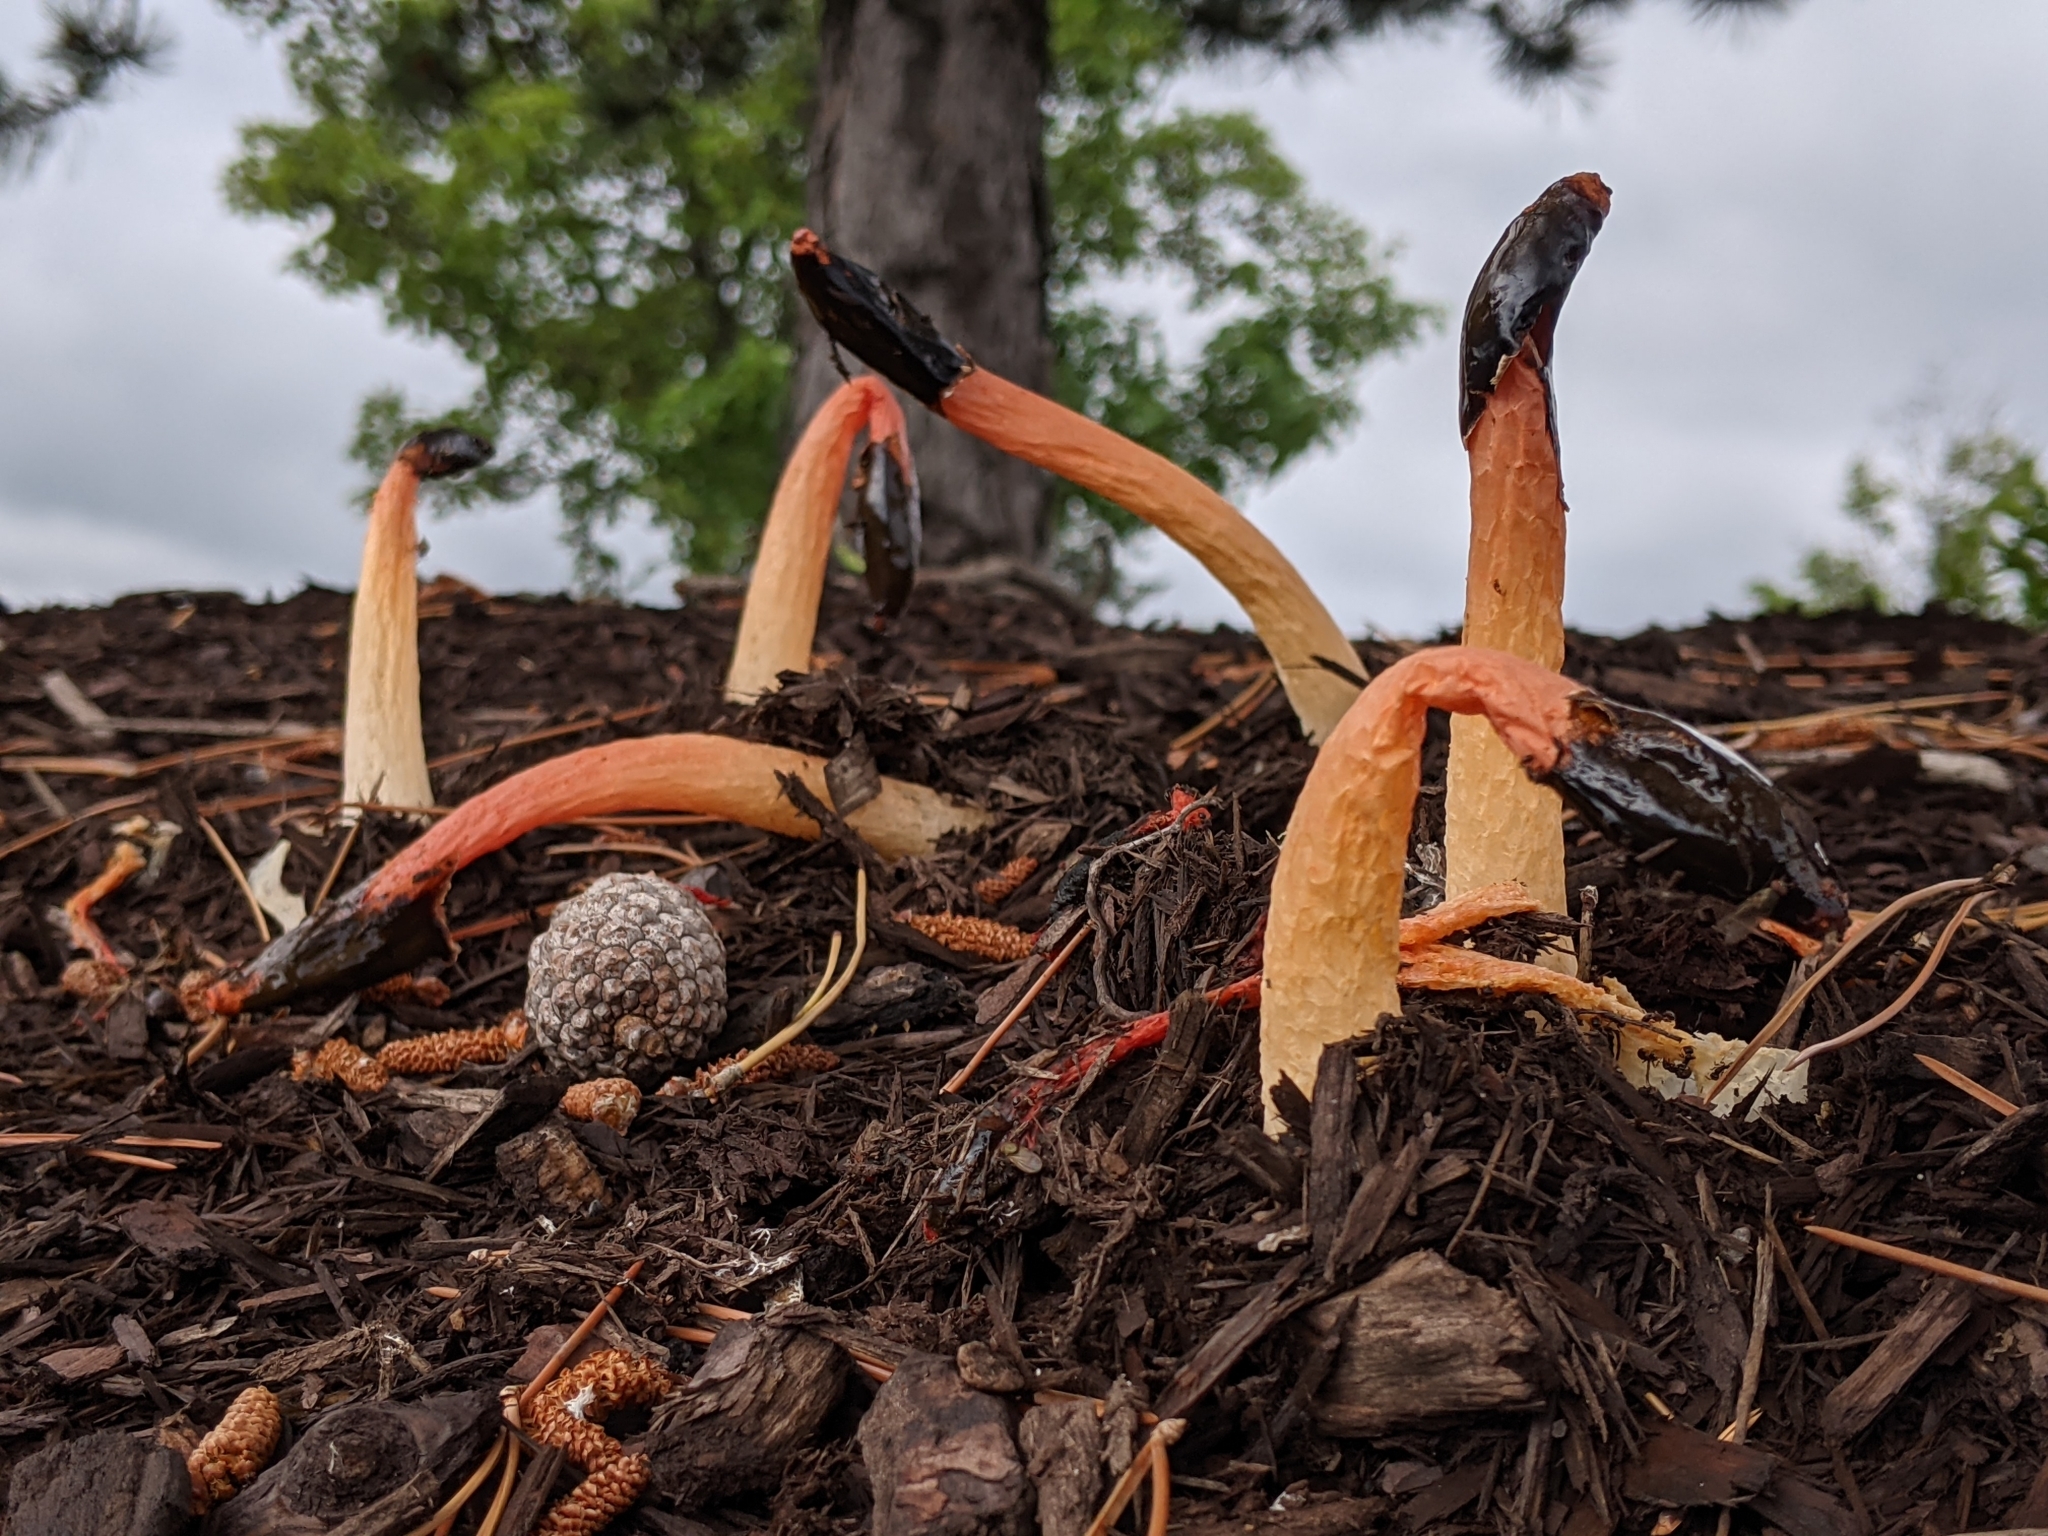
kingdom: Fungi
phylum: Basidiomycota
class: Agaricomycetes
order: Phallales
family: Phallaceae
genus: Phallus
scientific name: Phallus rugulosus
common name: Wrinkly stinkhorn
